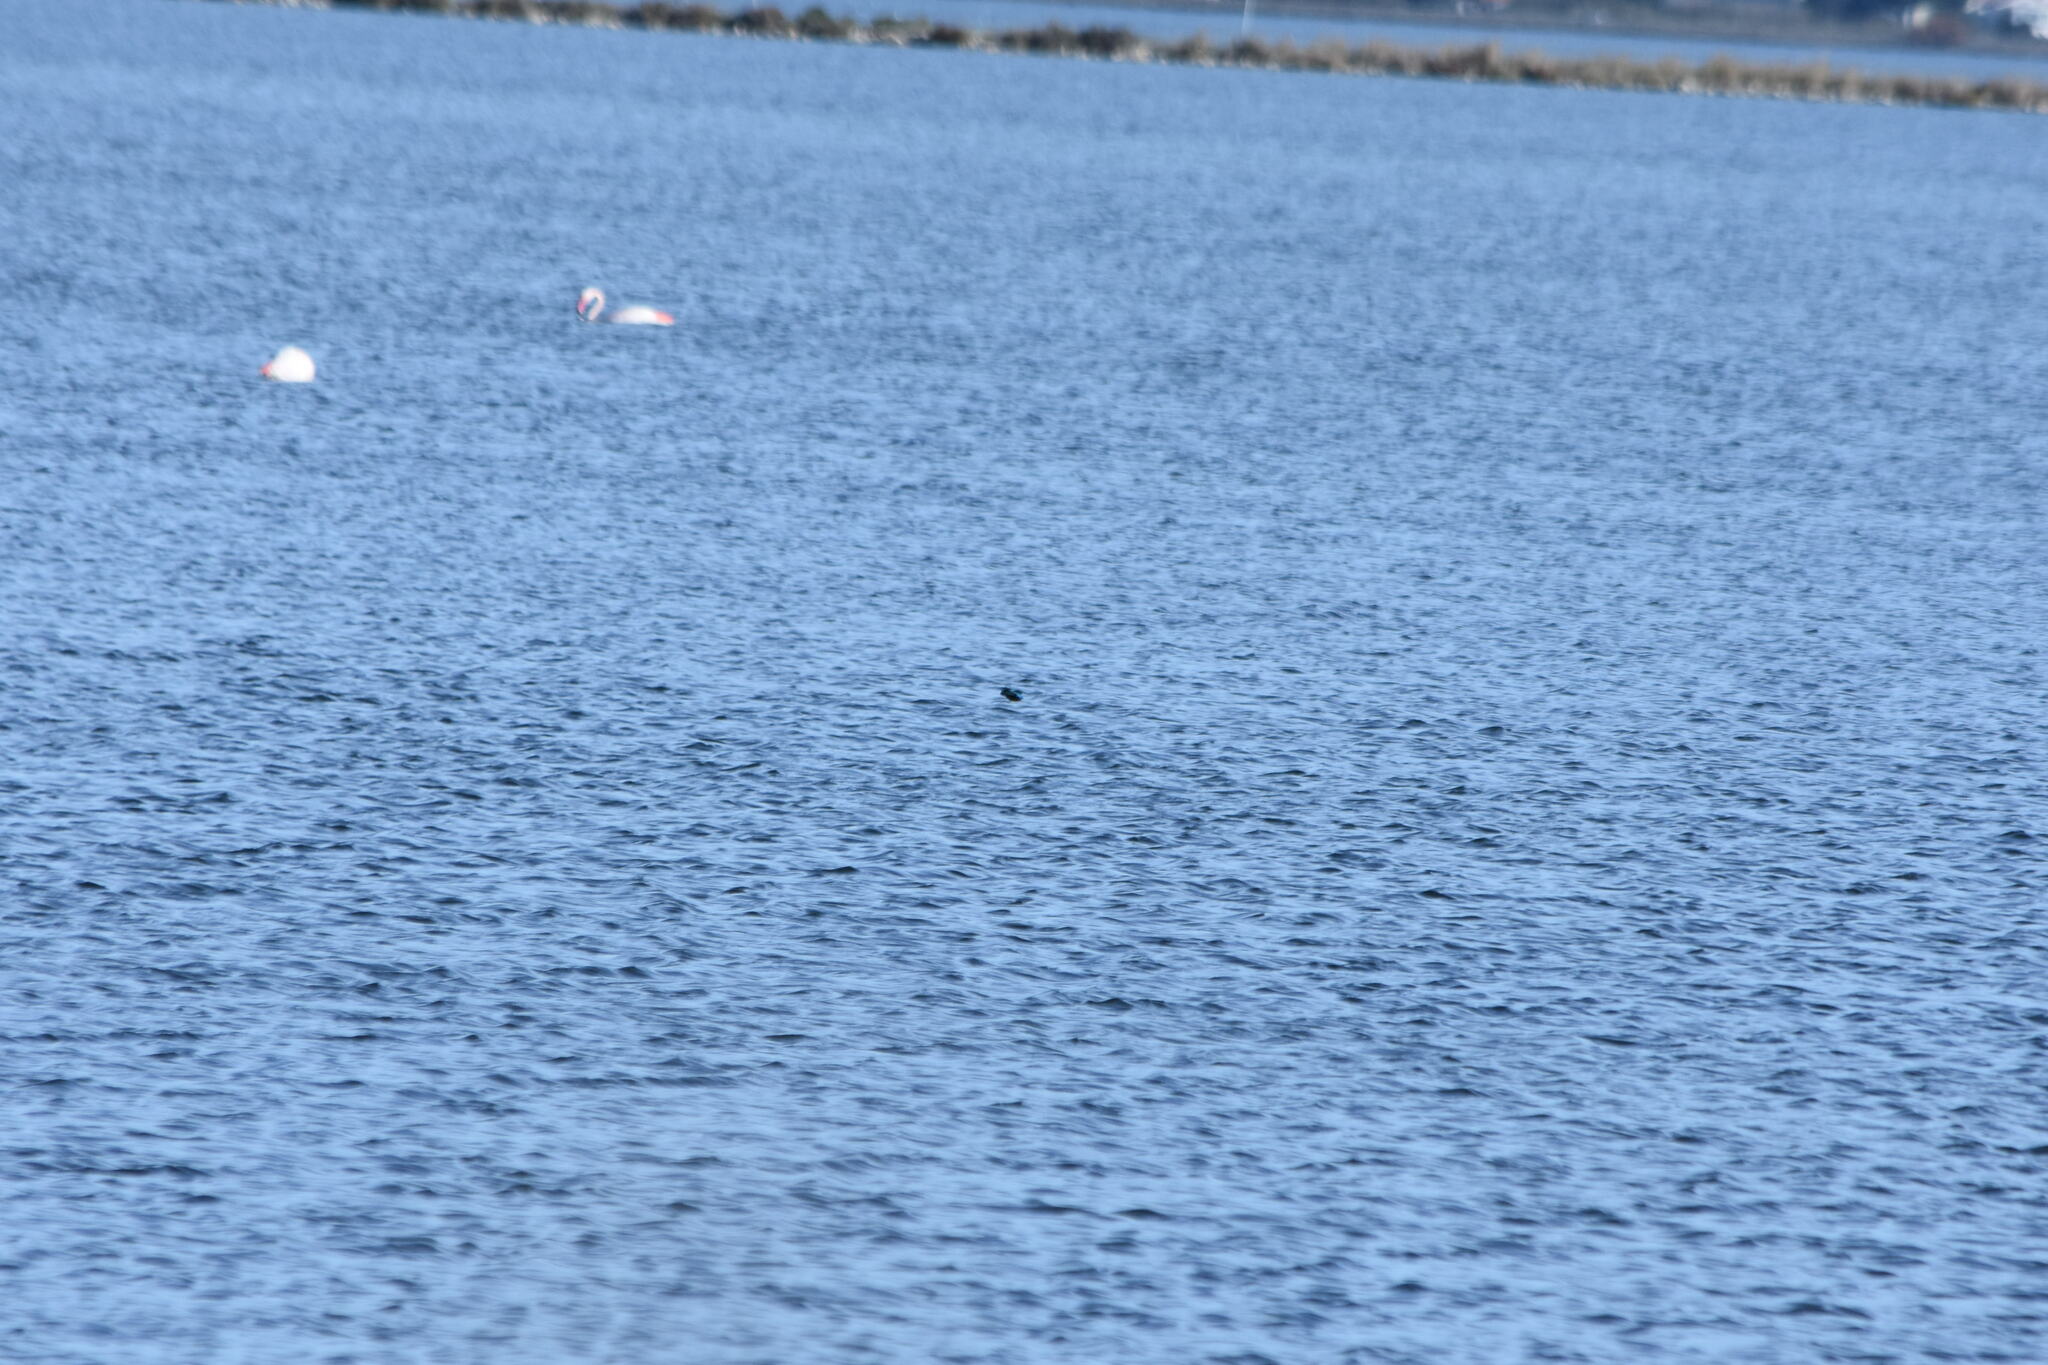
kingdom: Animalia
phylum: Chordata
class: Aves
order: Coraciiformes
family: Alcedinidae
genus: Alcedo
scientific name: Alcedo atthis
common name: Common kingfisher
